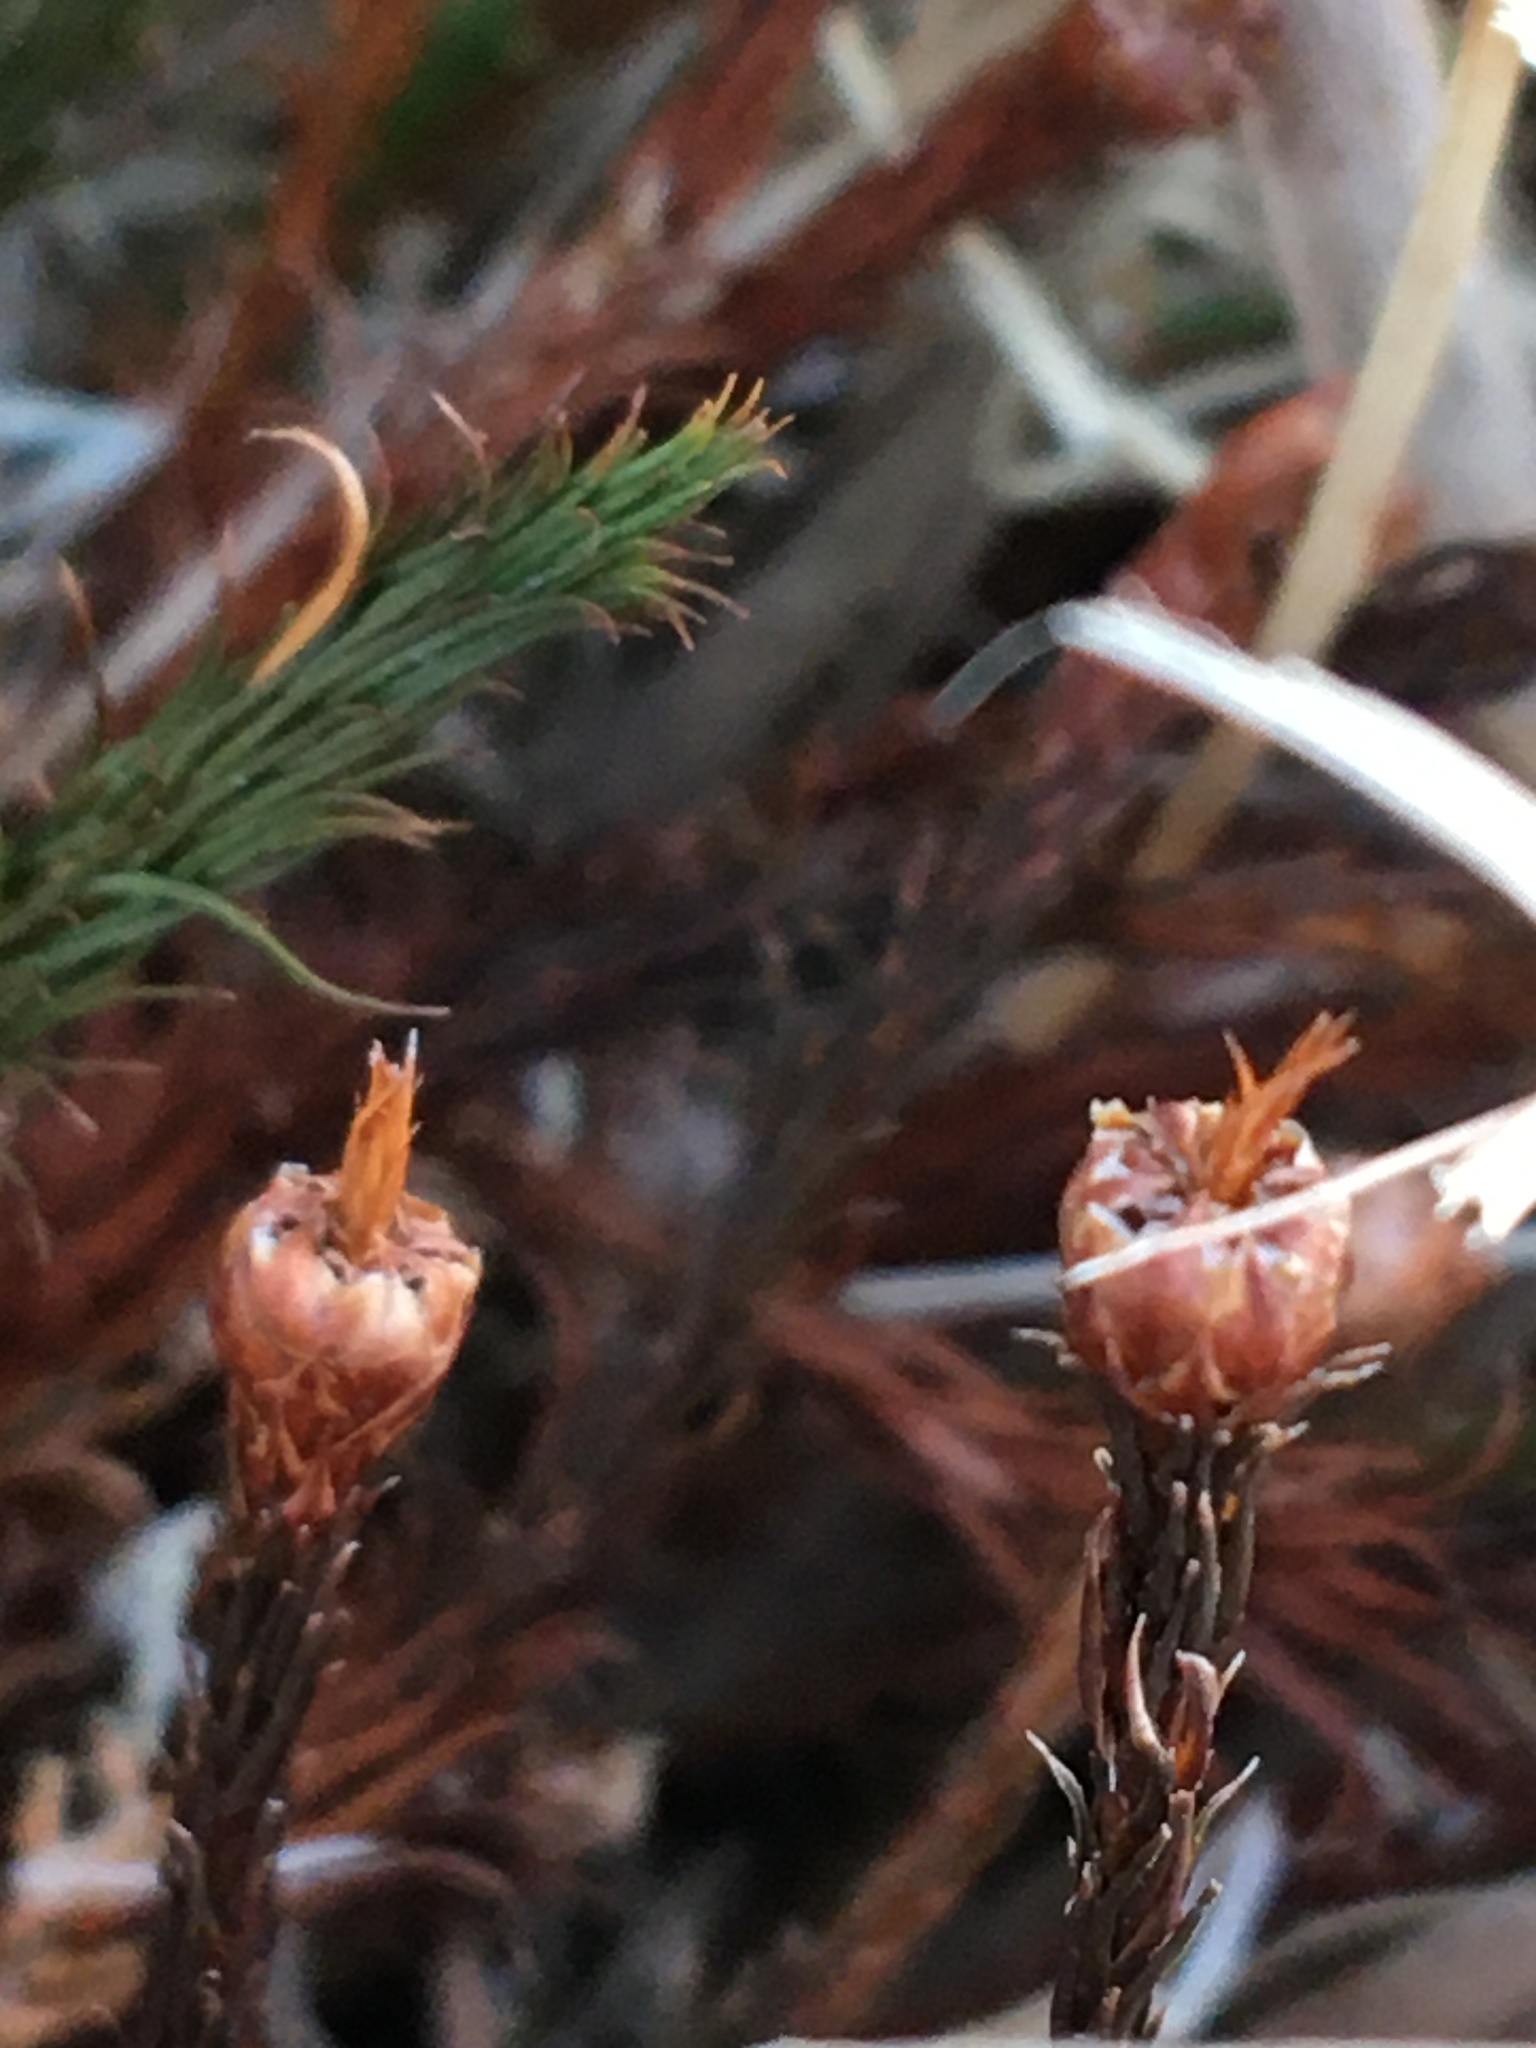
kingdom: Plantae
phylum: Bryophyta
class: Polytrichopsida
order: Polytrichales
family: Polytrichaceae
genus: Polytrichum
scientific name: Polytrichum commune
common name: Common haircap
